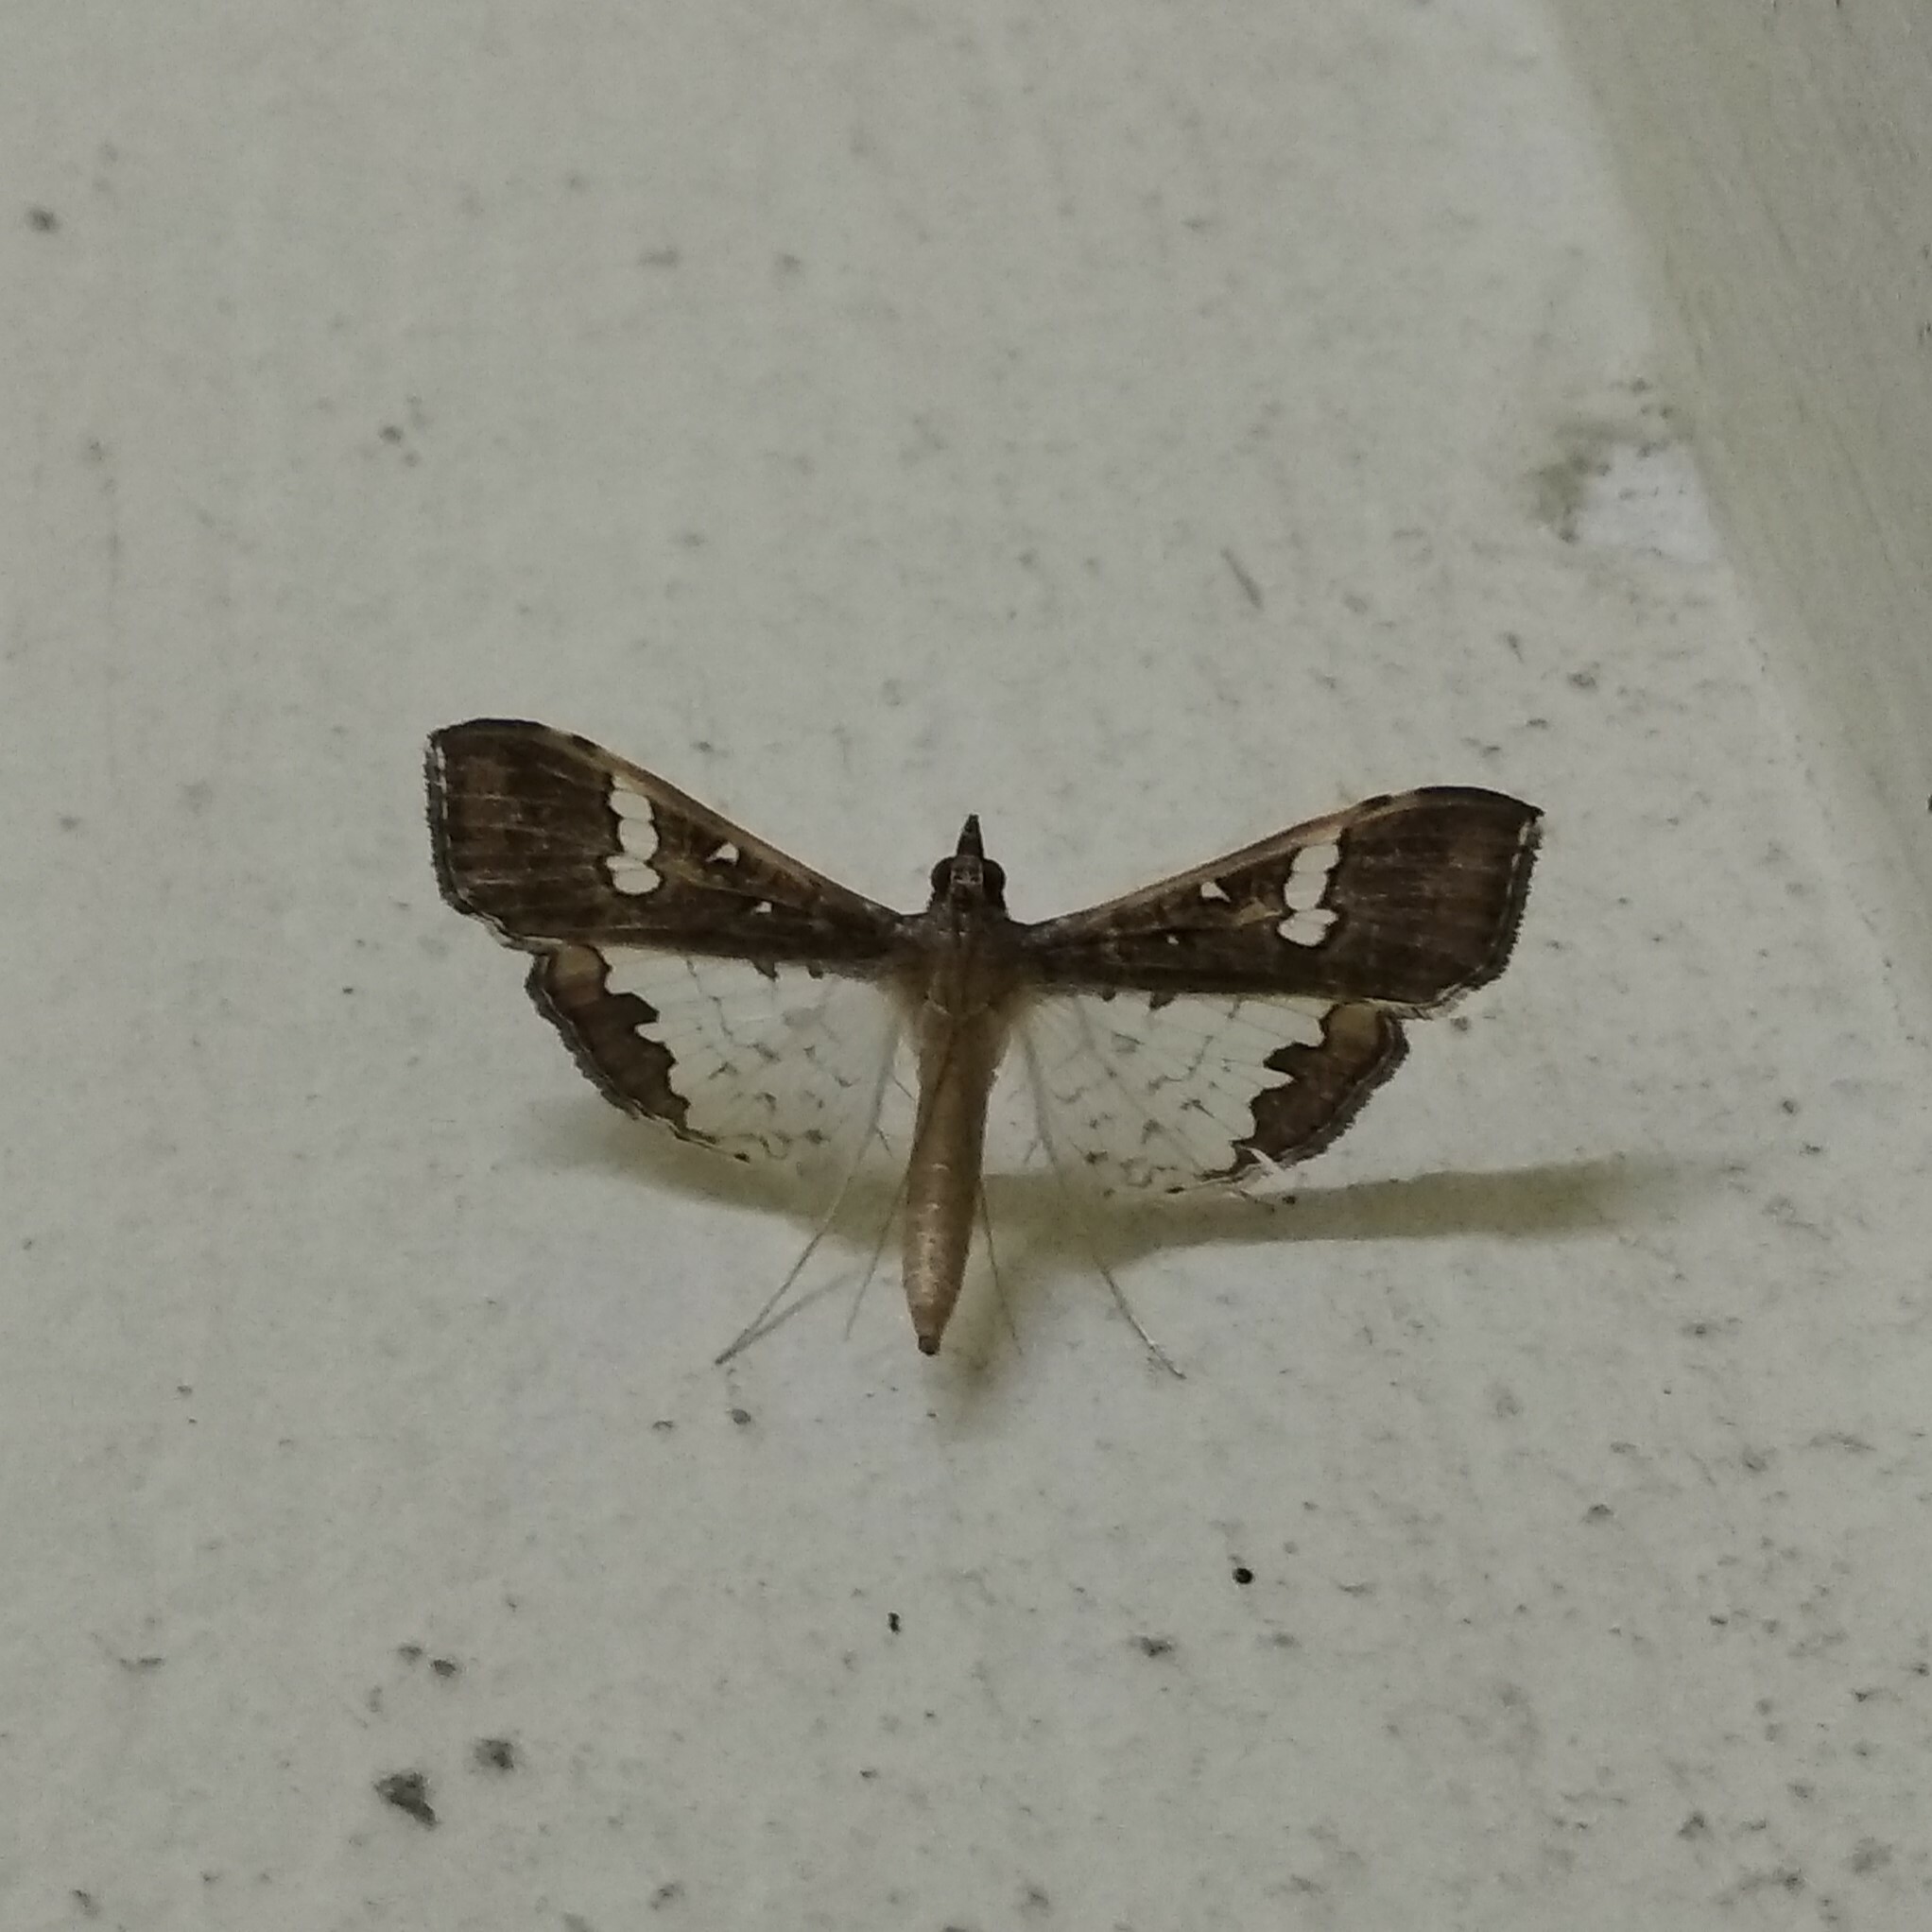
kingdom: Animalia
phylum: Arthropoda
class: Insecta
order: Lepidoptera
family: Crambidae
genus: Maruca
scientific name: Maruca vitrata
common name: Maruca pod borer
